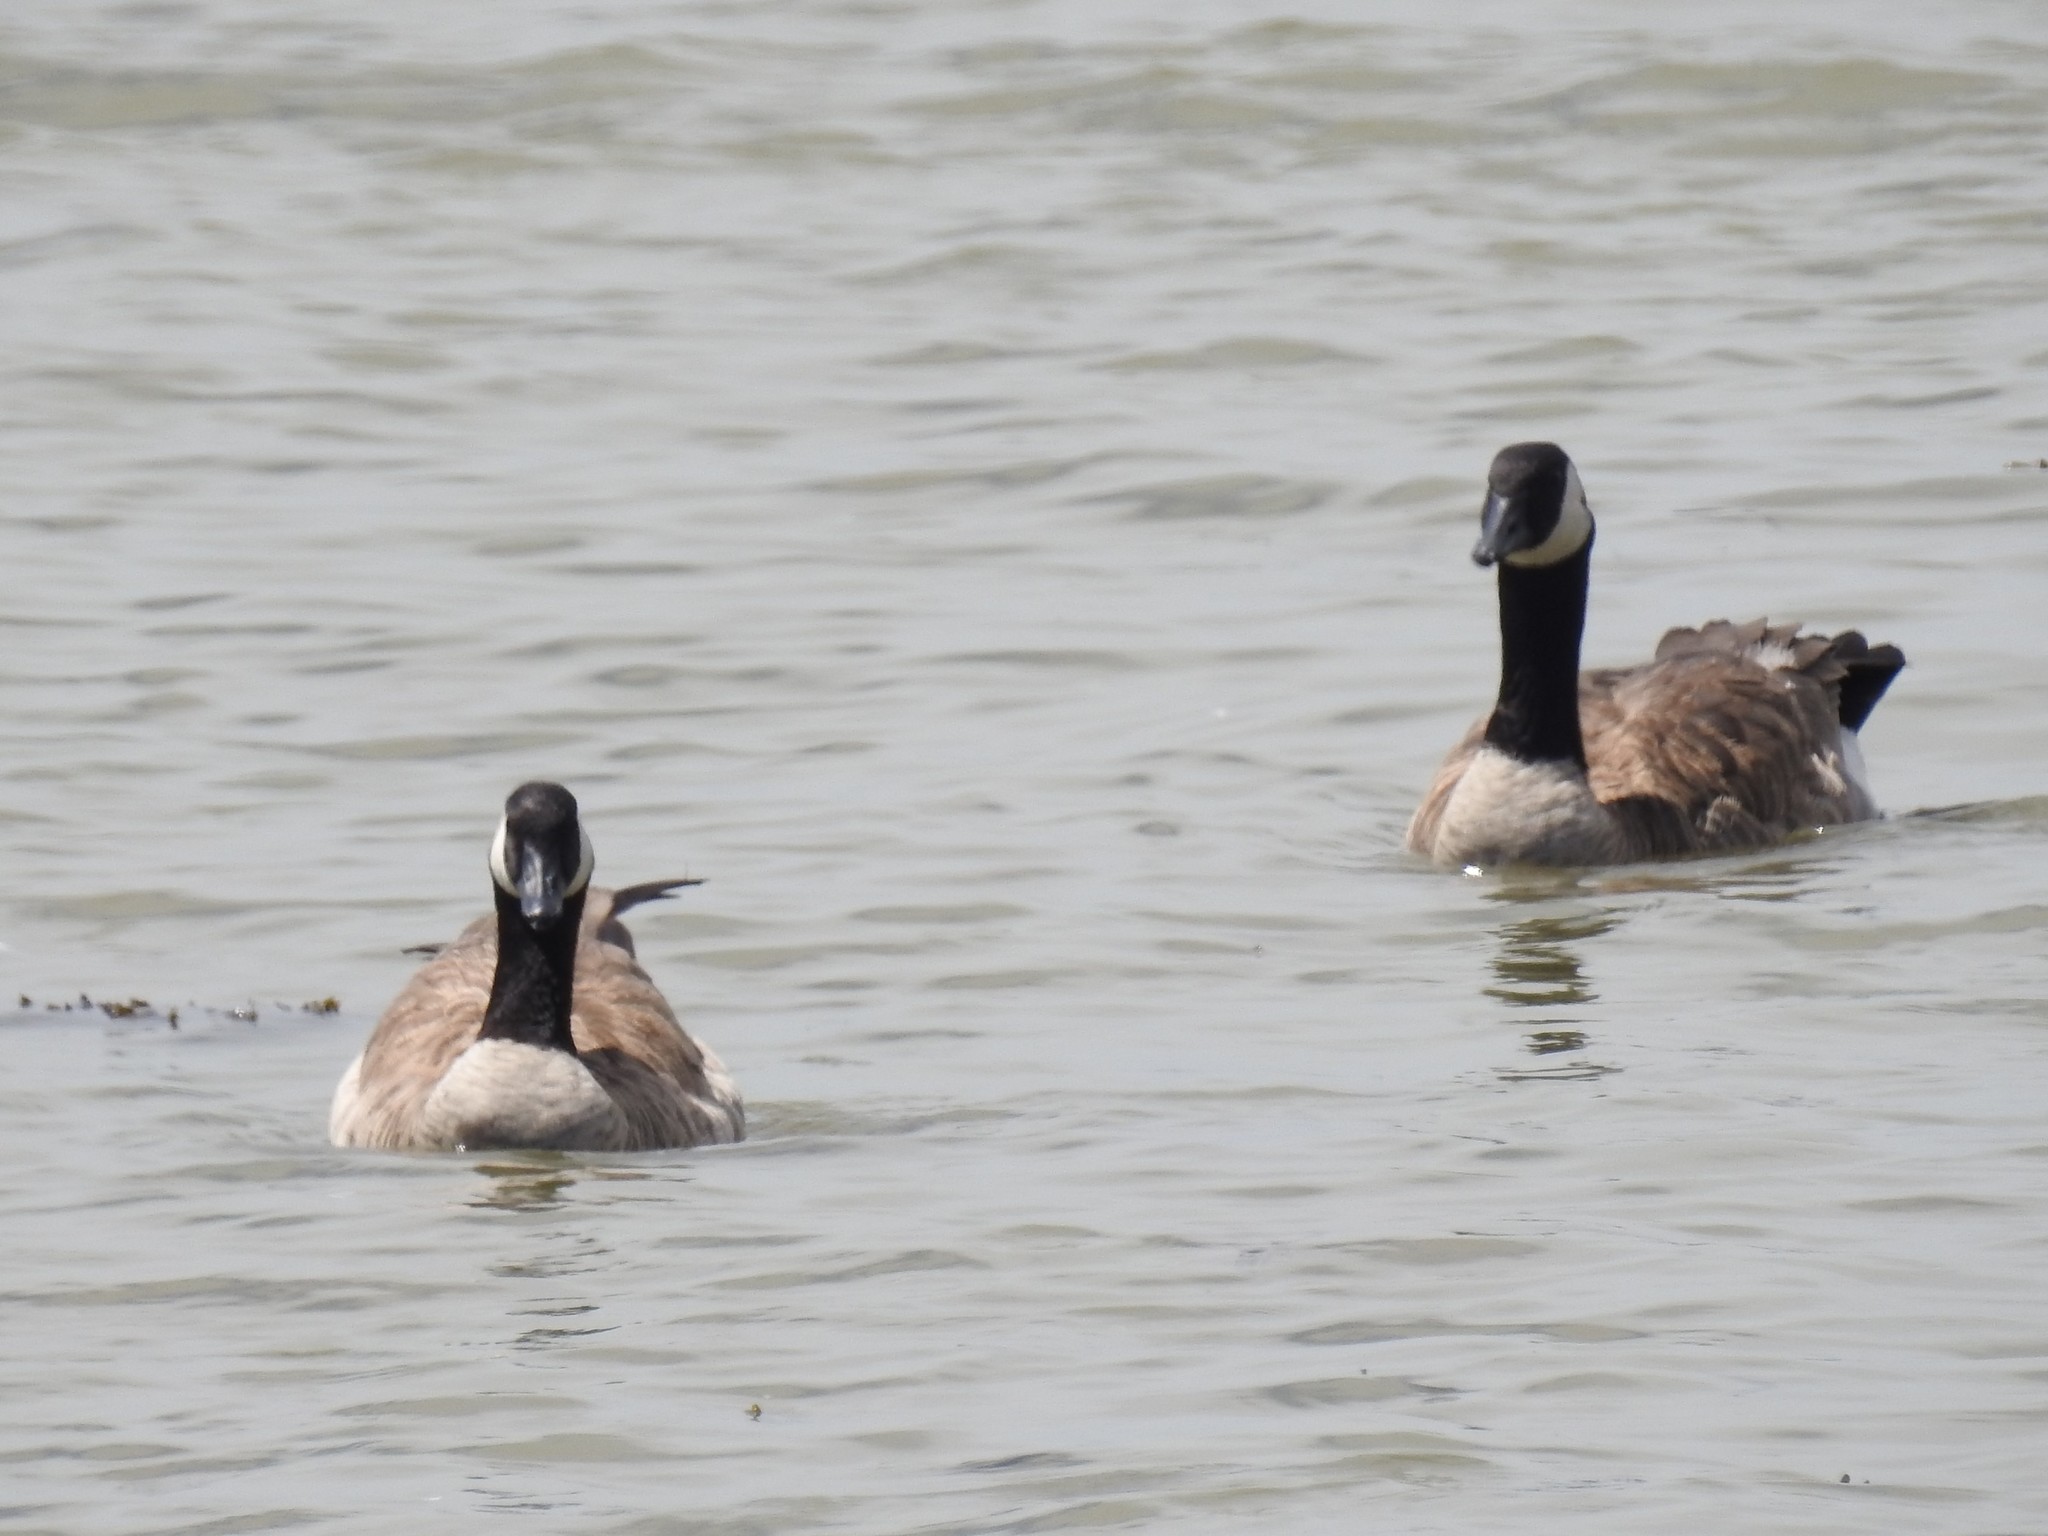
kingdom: Animalia
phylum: Chordata
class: Aves
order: Anseriformes
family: Anatidae
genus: Branta
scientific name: Branta canadensis
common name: Canada goose
